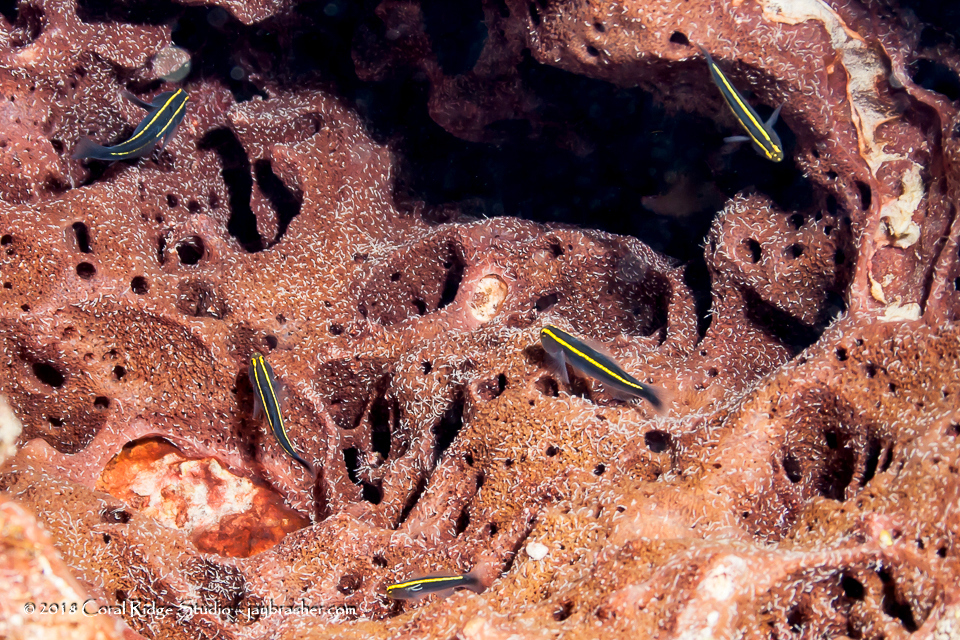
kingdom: Animalia
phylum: Chordata
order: Perciformes
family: Gobiidae
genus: Elacatinus
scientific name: Elacatinus horsti
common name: Yellowline goby
